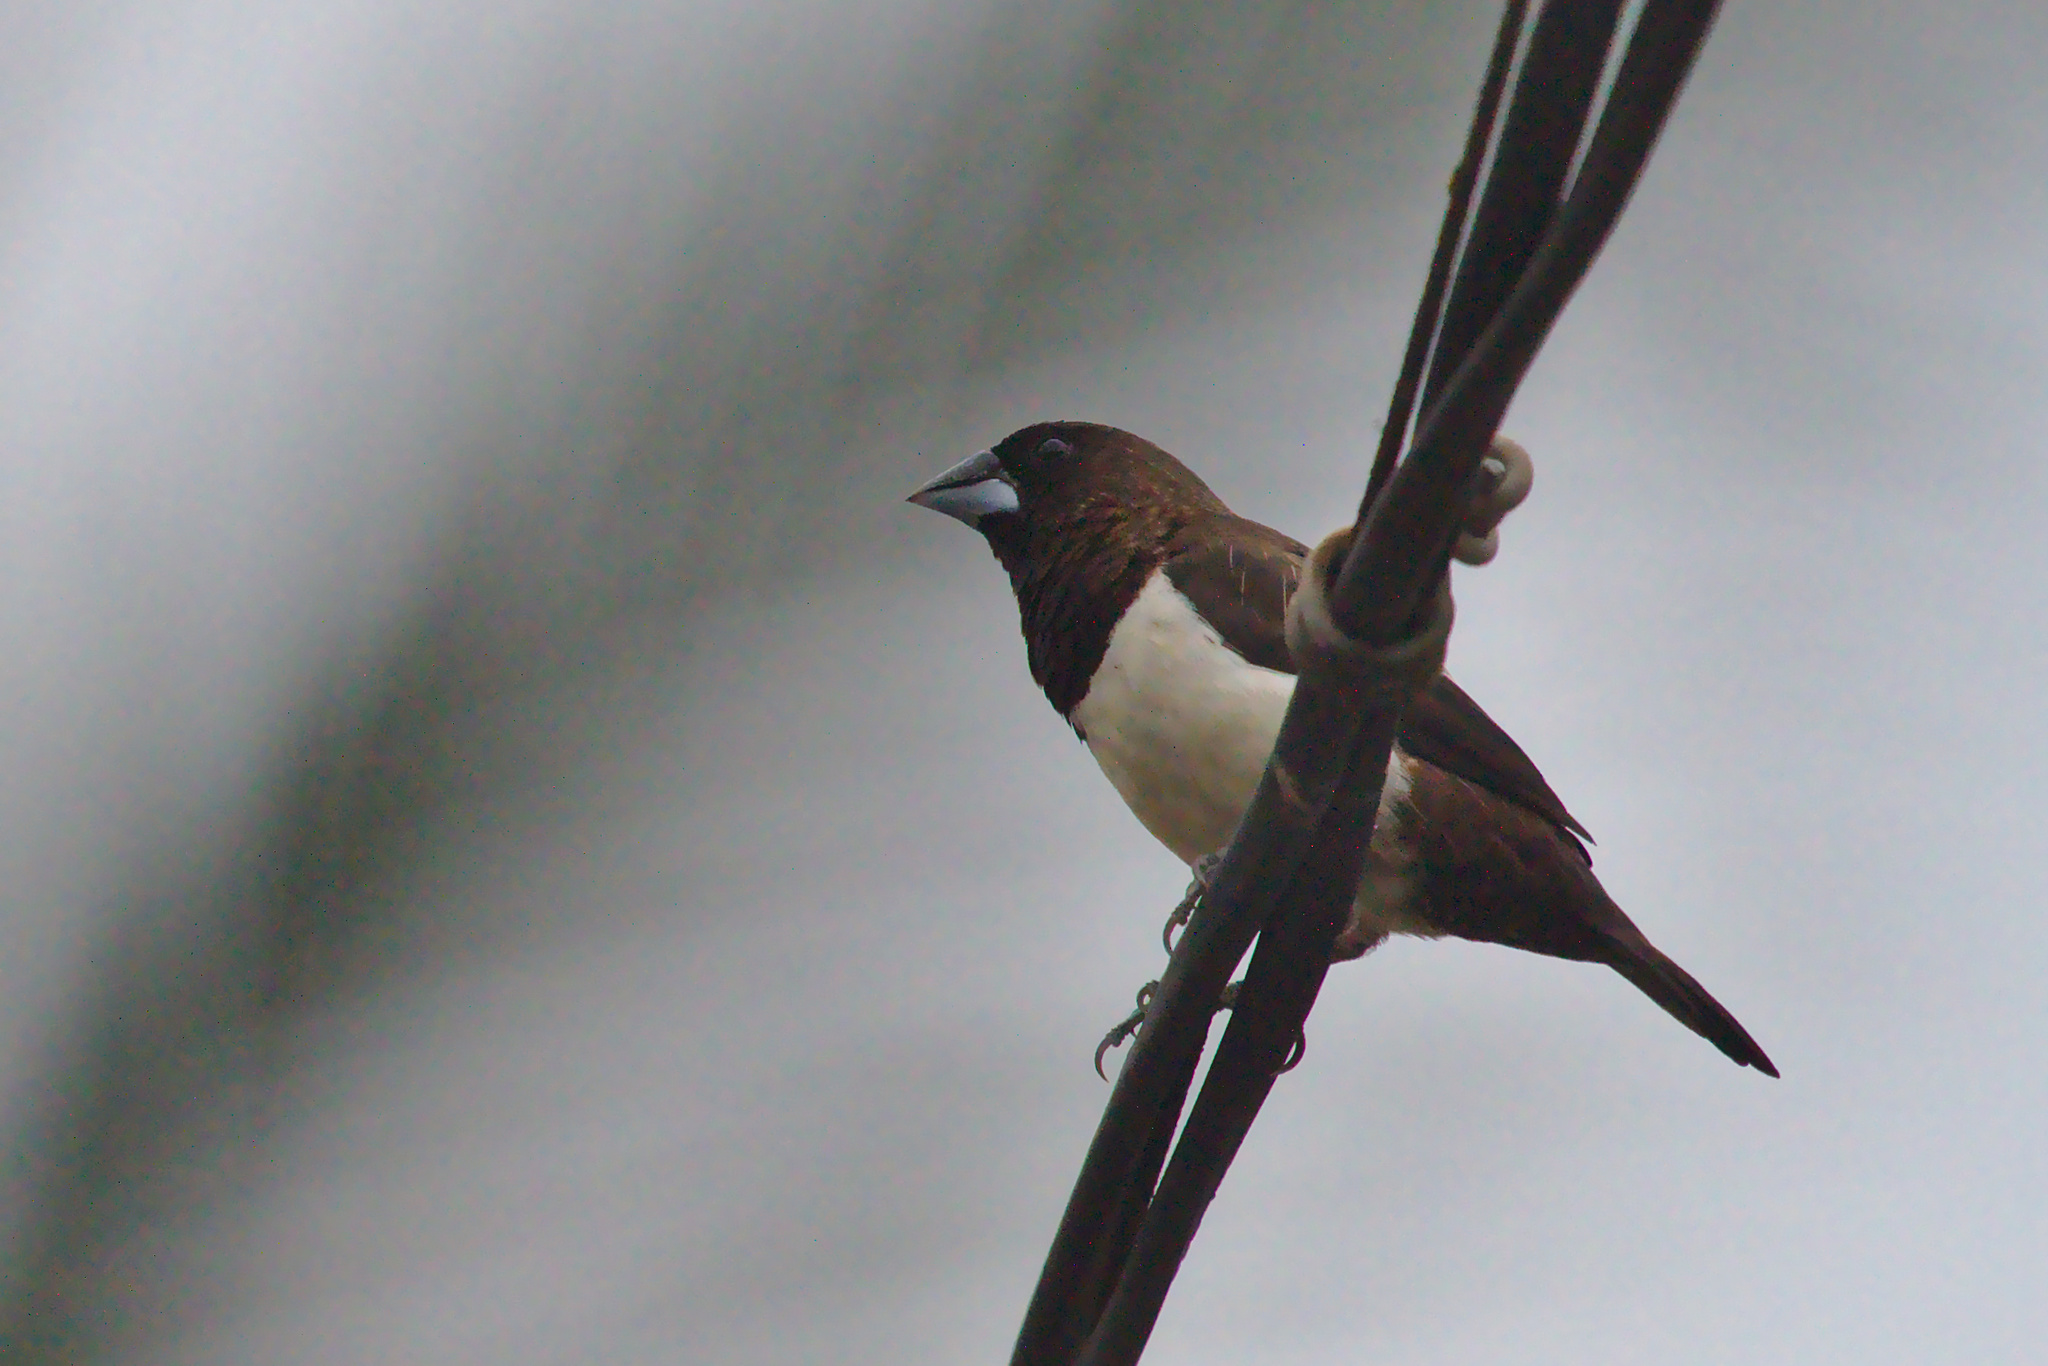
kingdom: Animalia
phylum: Chordata
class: Aves
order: Passeriformes
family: Estrildidae
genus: Lonchura
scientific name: Lonchura striata
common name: White-rumped munia
